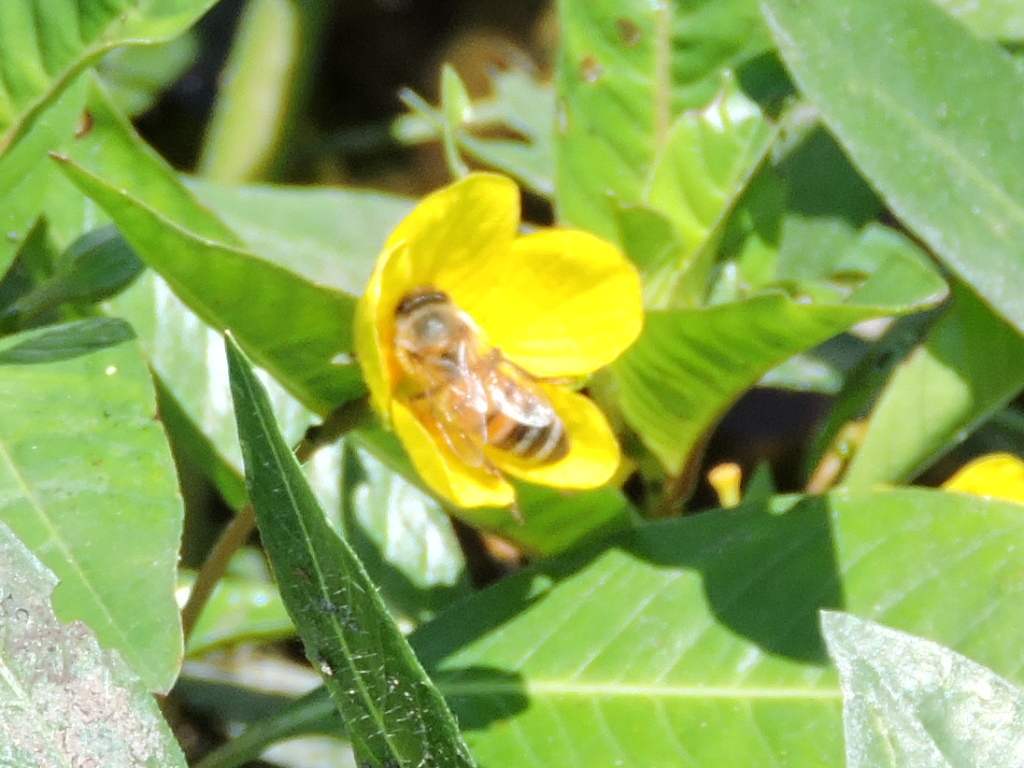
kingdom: Animalia
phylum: Arthropoda
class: Insecta
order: Hymenoptera
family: Apidae
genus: Apis
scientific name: Apis mellifera
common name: Honey bee
